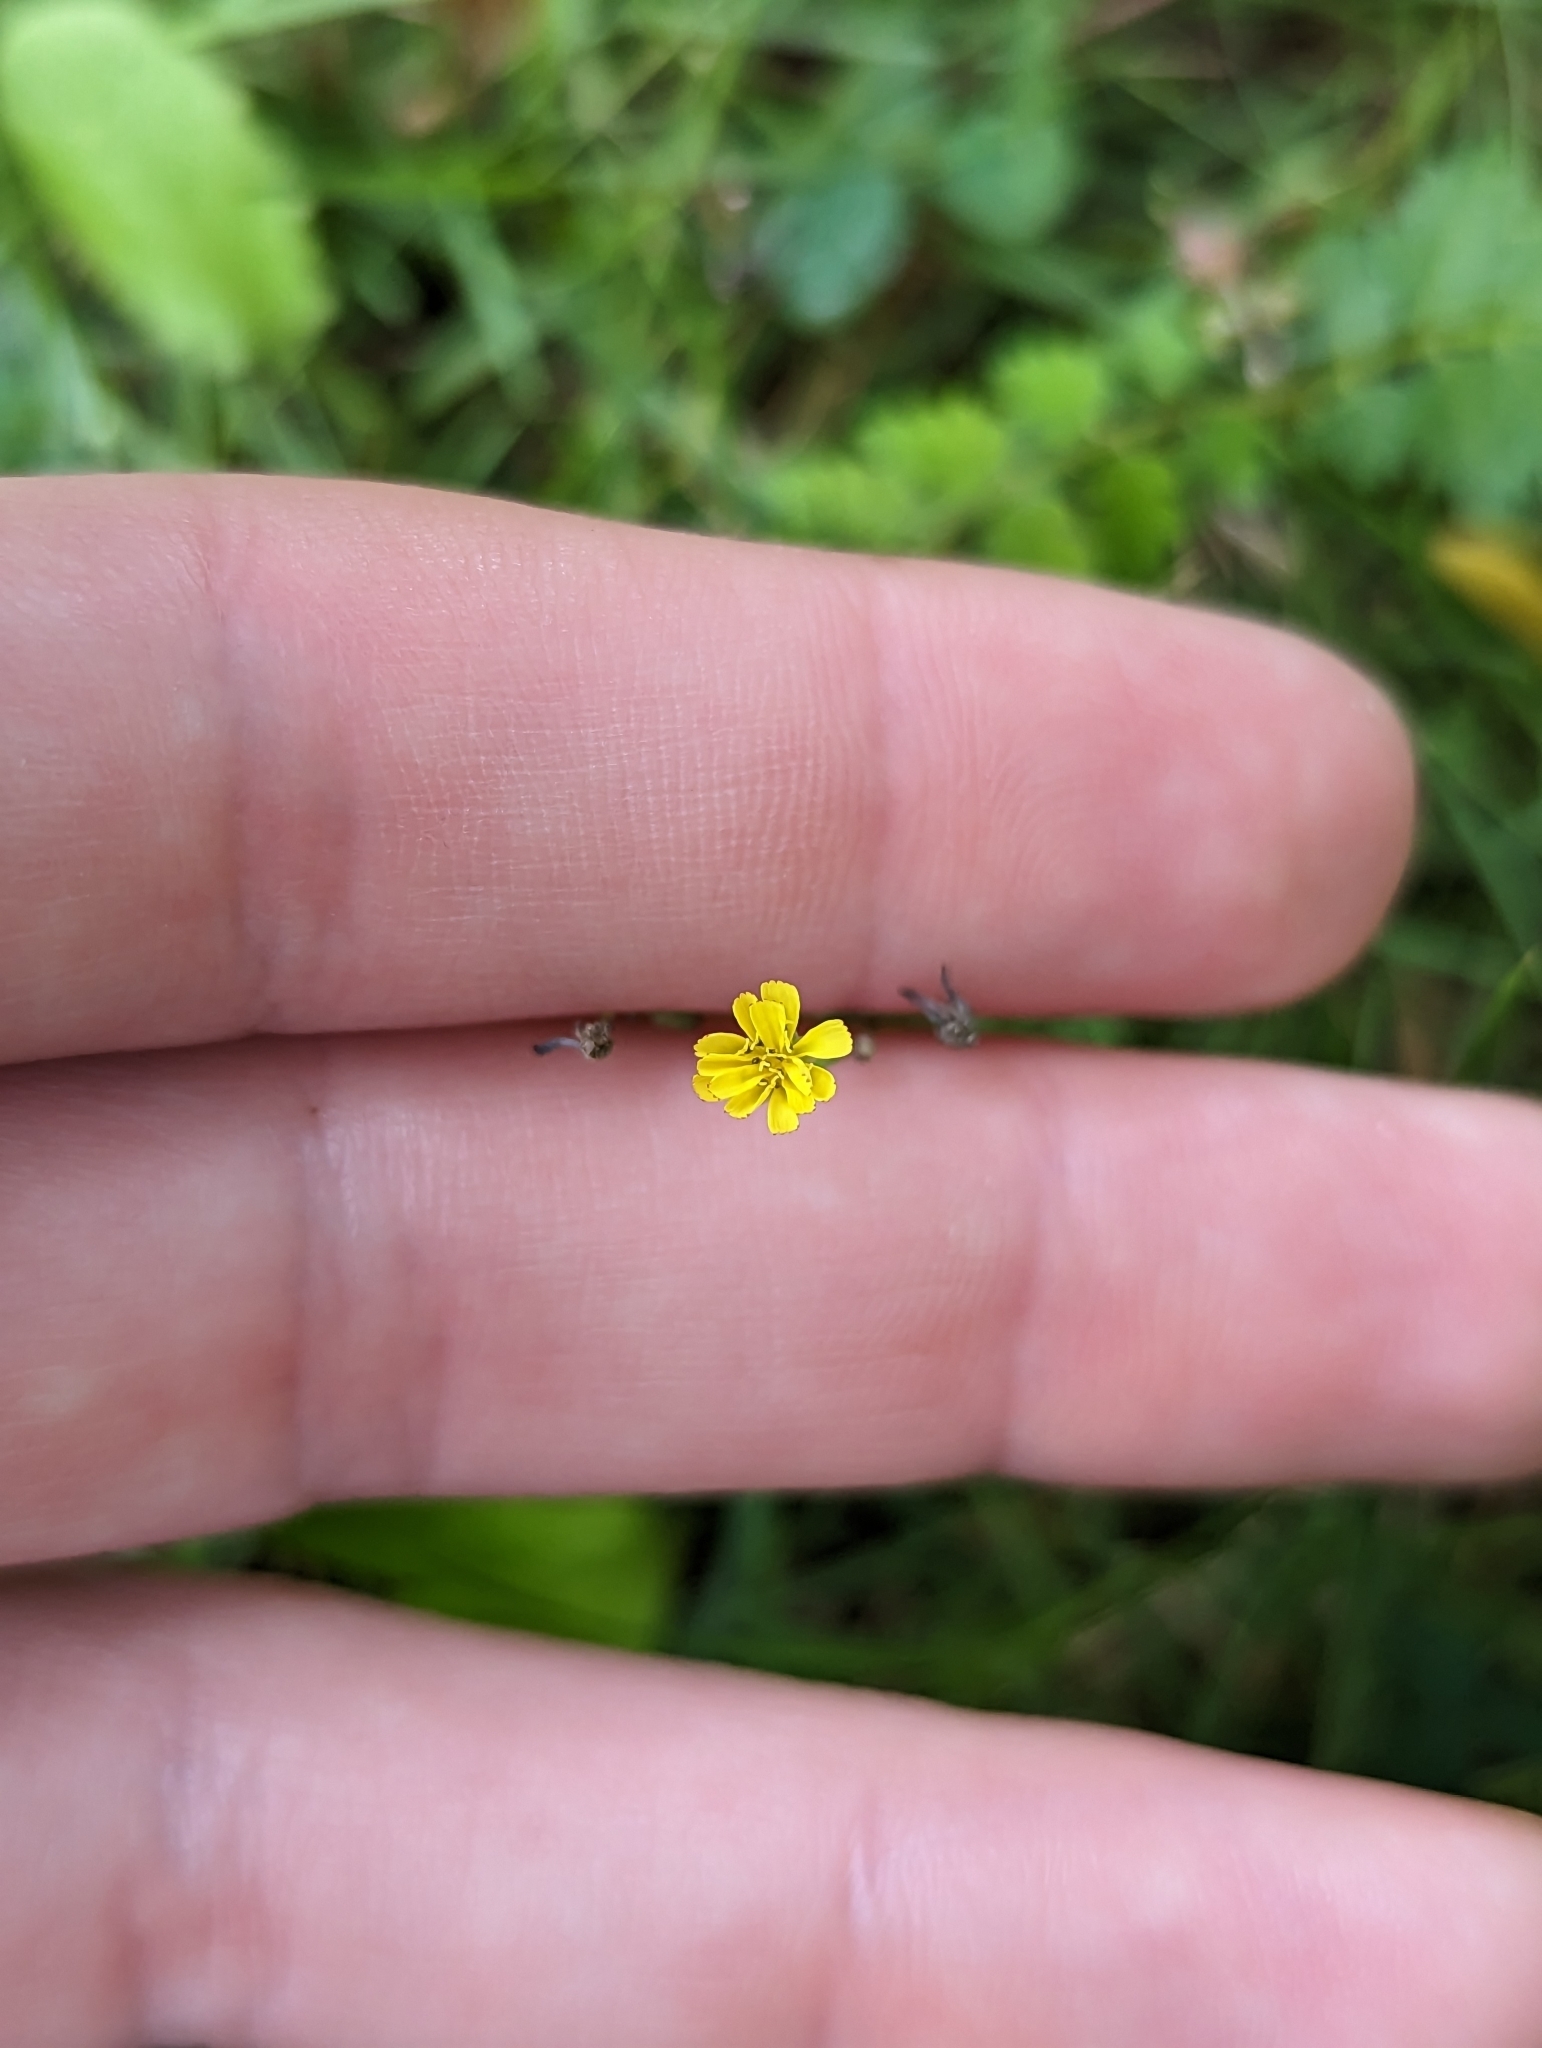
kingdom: Plantae
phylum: Tracheophyta
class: Magnoliopsida
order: Asterales
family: Asteraceae
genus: Youngia
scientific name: Youngia japonica
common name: Oriental false hawksbeard
